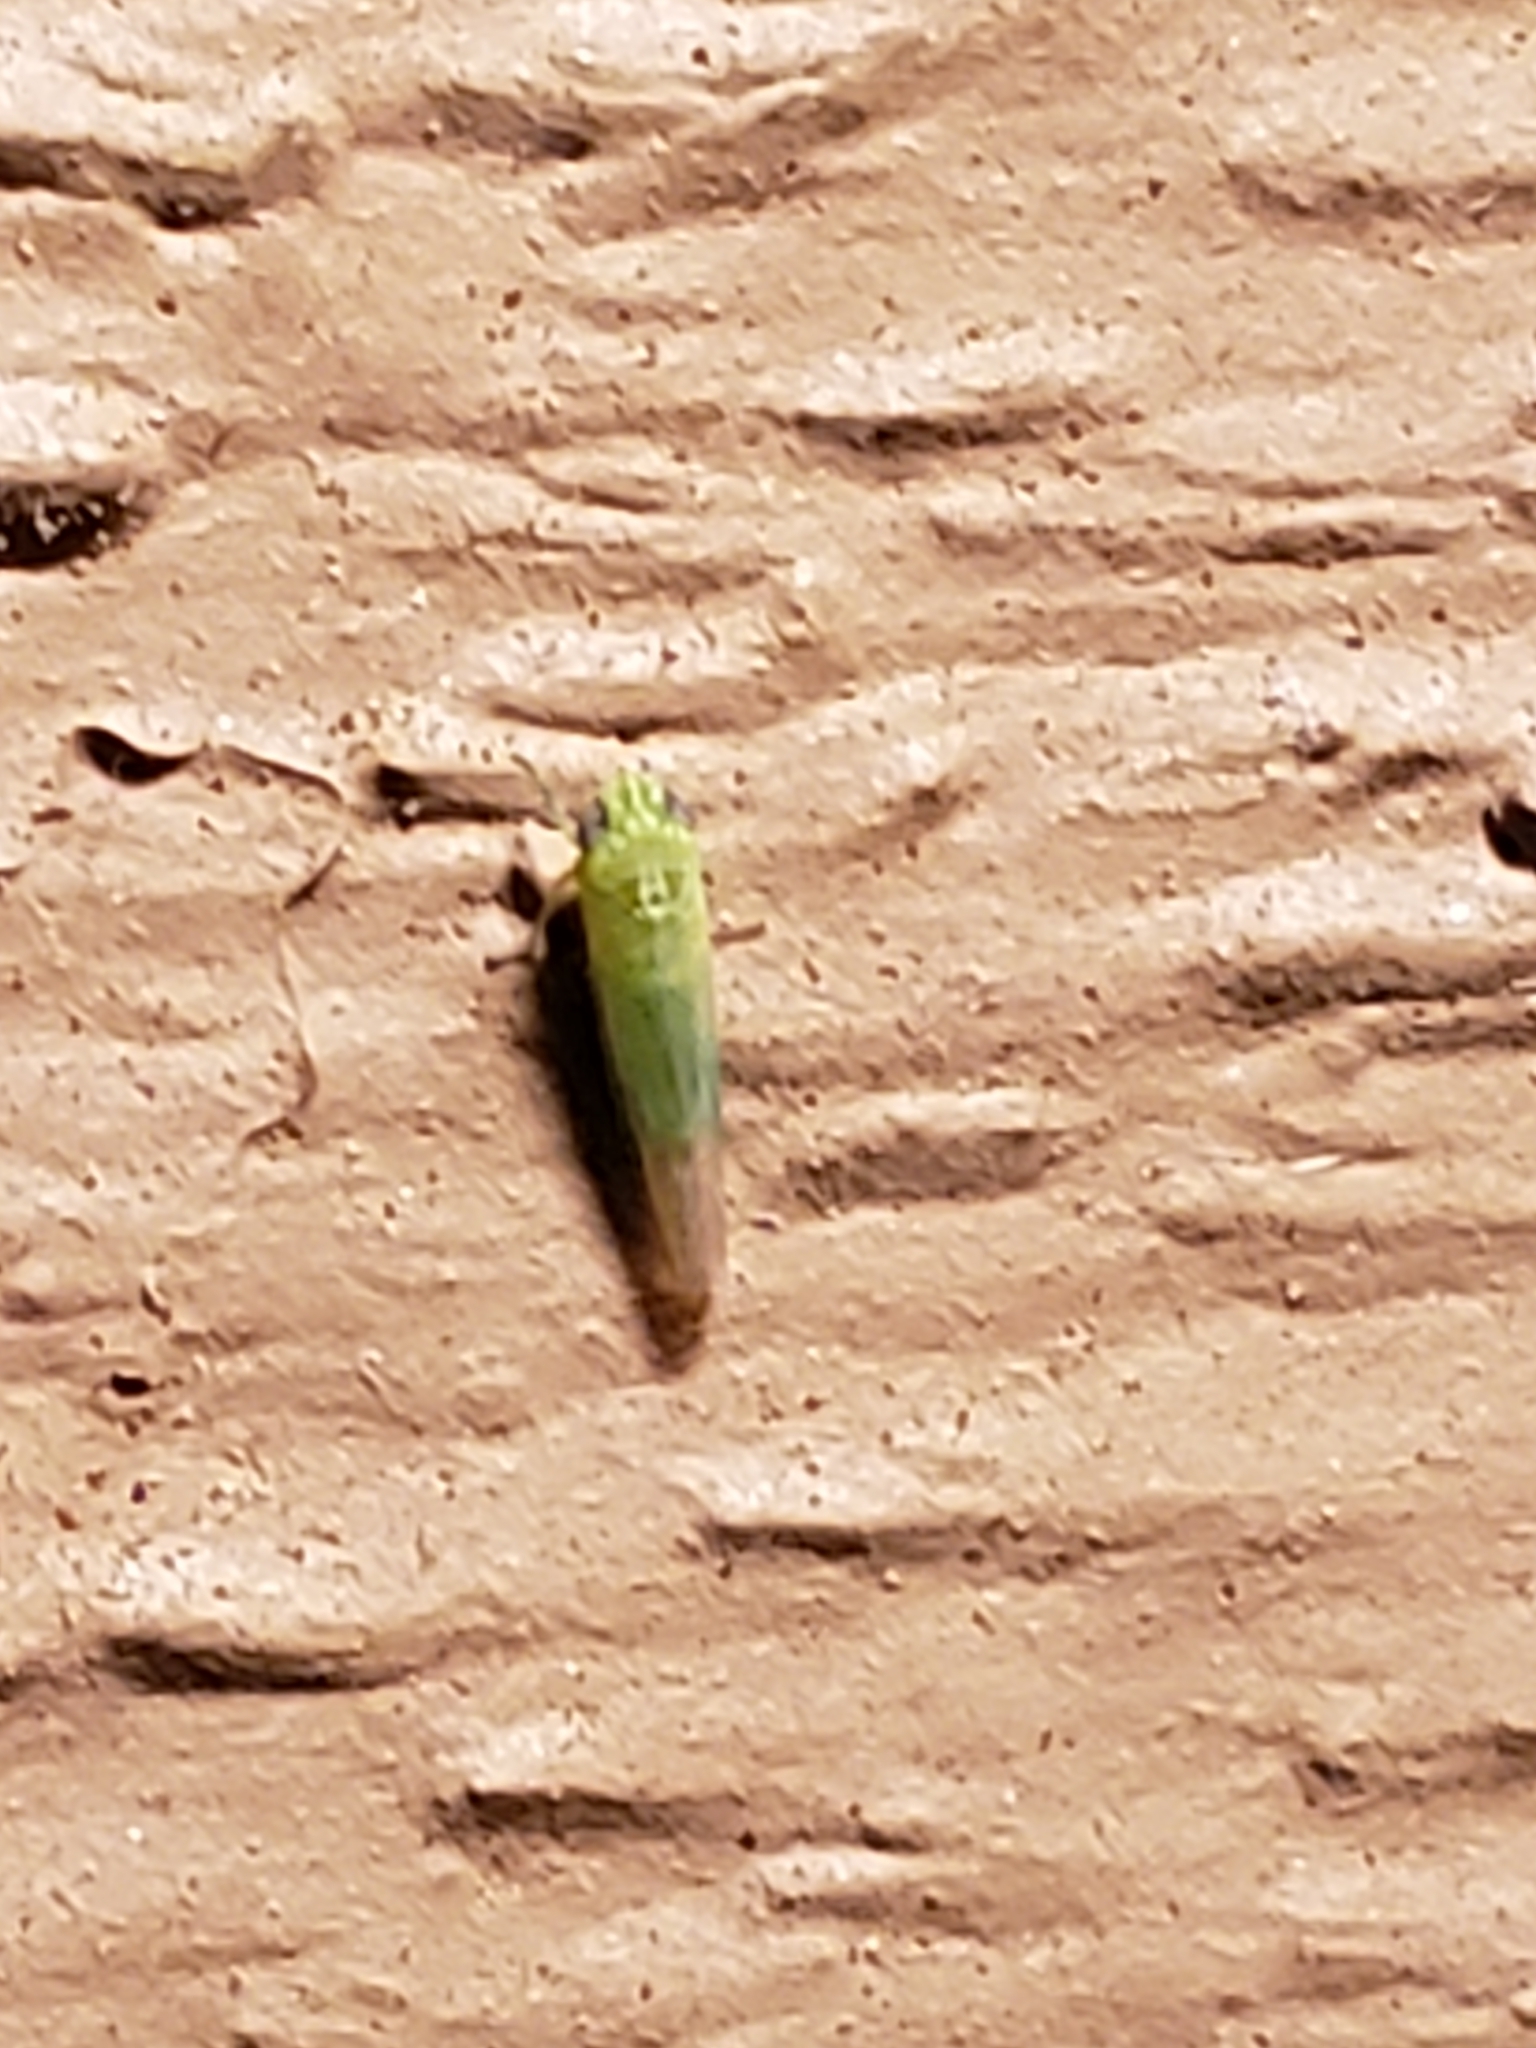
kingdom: Animalia
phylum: Arthropoda
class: Insecta
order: Hemiptera
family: Cicadellidae
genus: Empoasca
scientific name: Empoasca fabae
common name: Potato leafhopper
